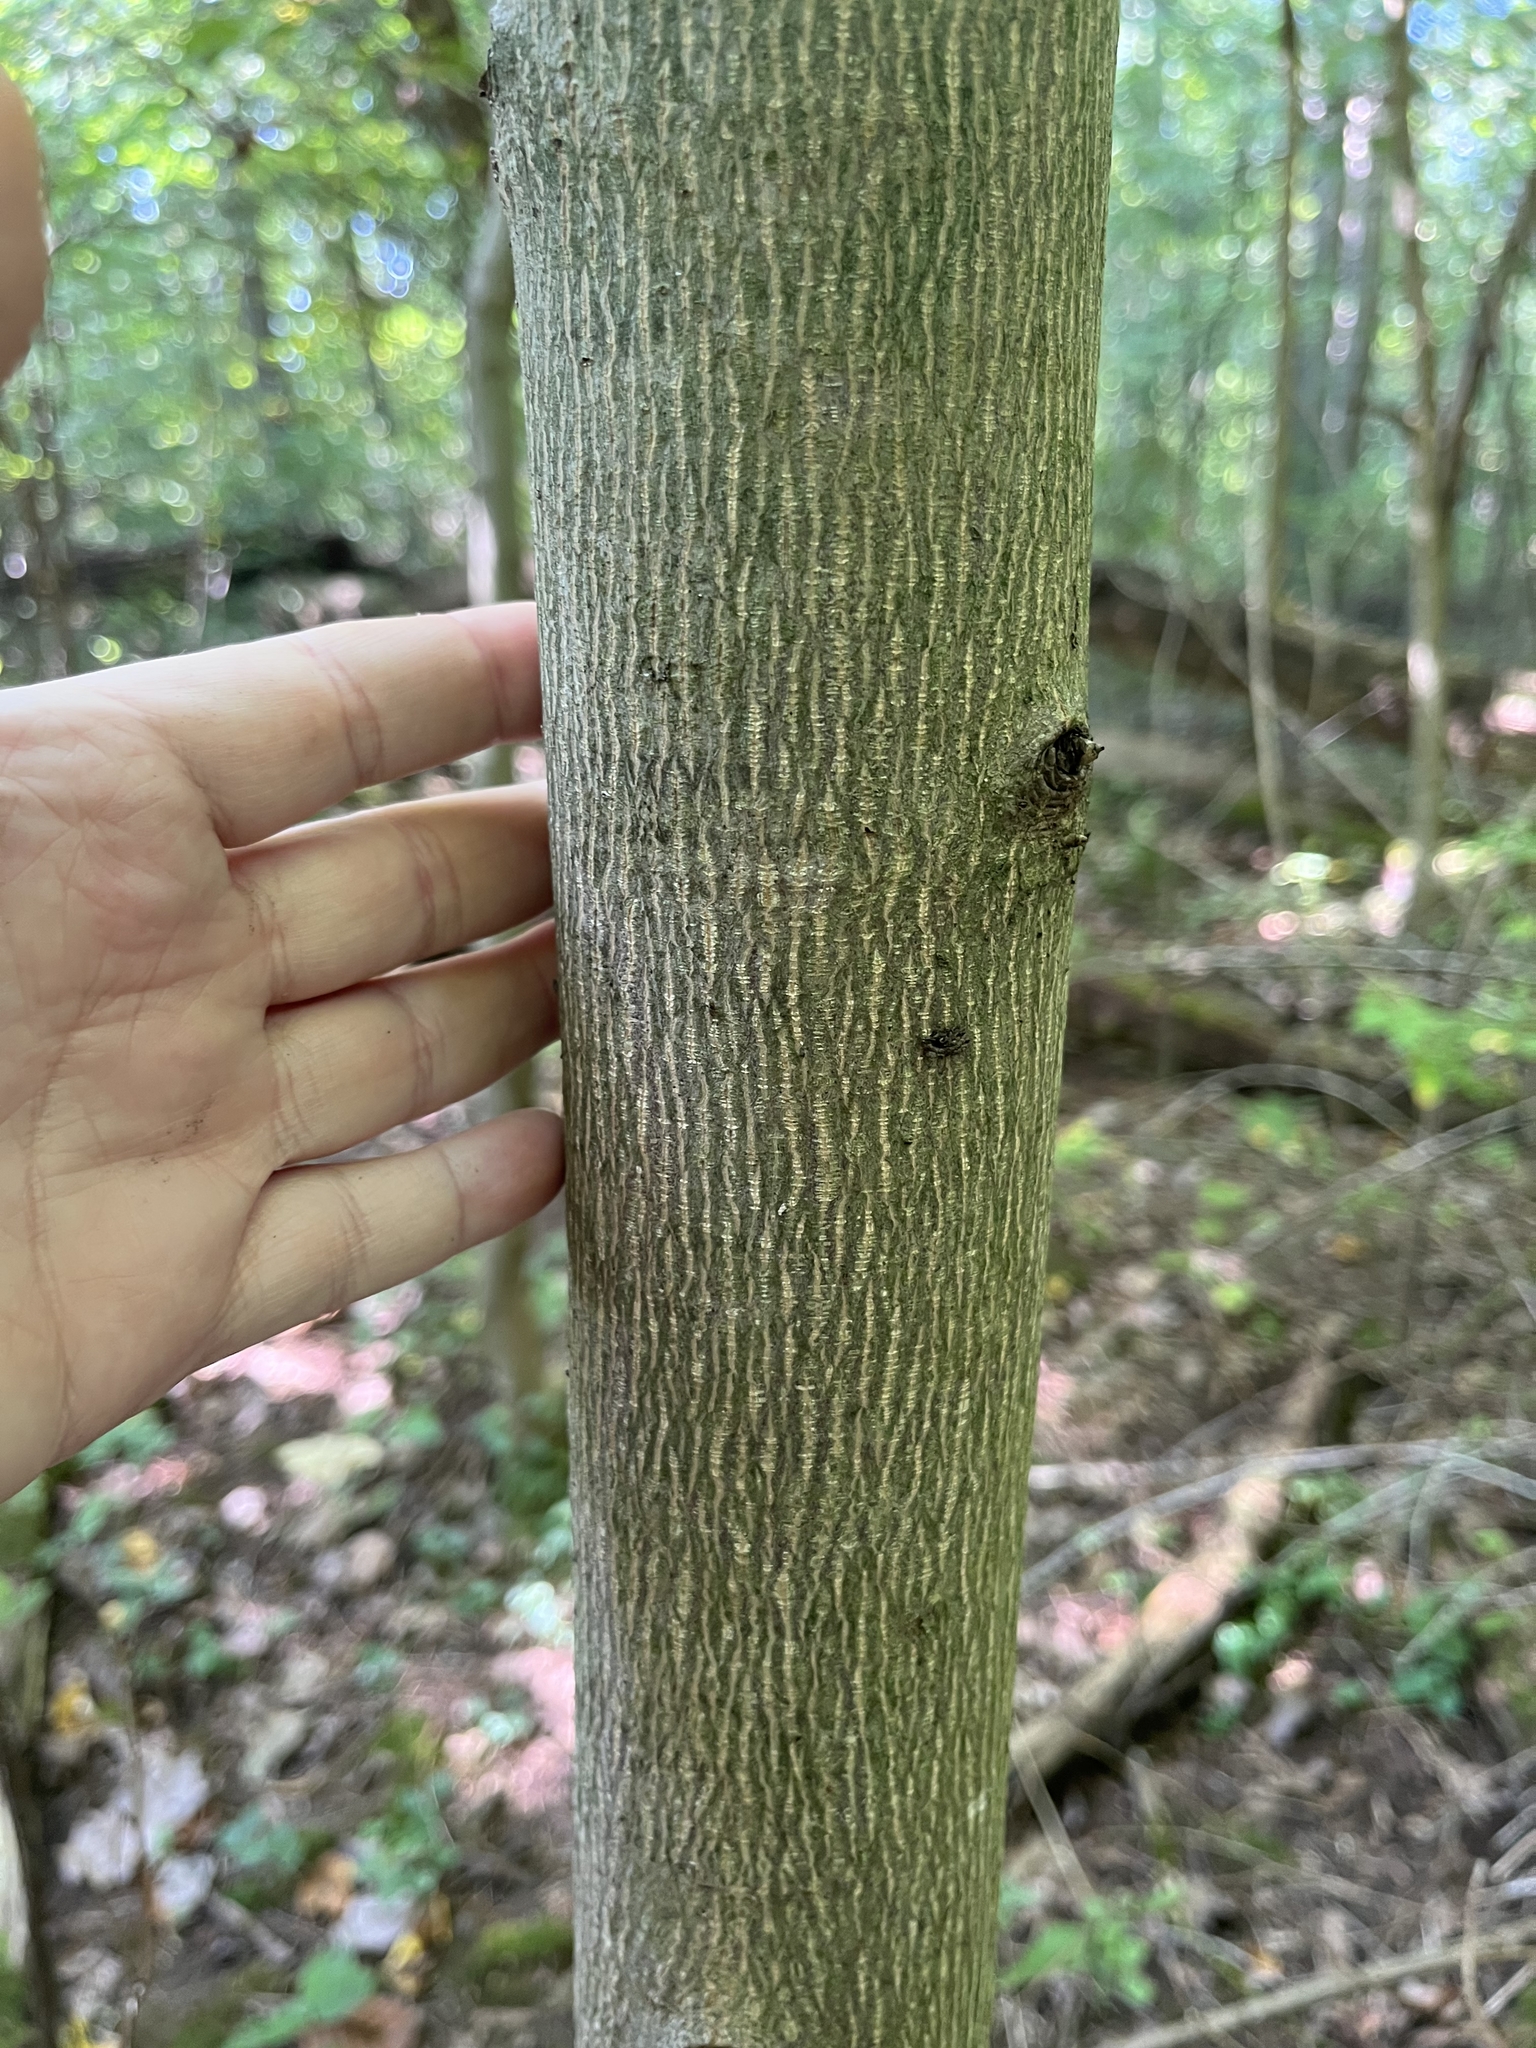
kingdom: Plantae
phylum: Tracheophyta
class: Magnoliopsida
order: Magnoliales
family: Magnoliaceae
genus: Liriodendron
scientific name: Liriodendron tulipifera
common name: Tulip tree
